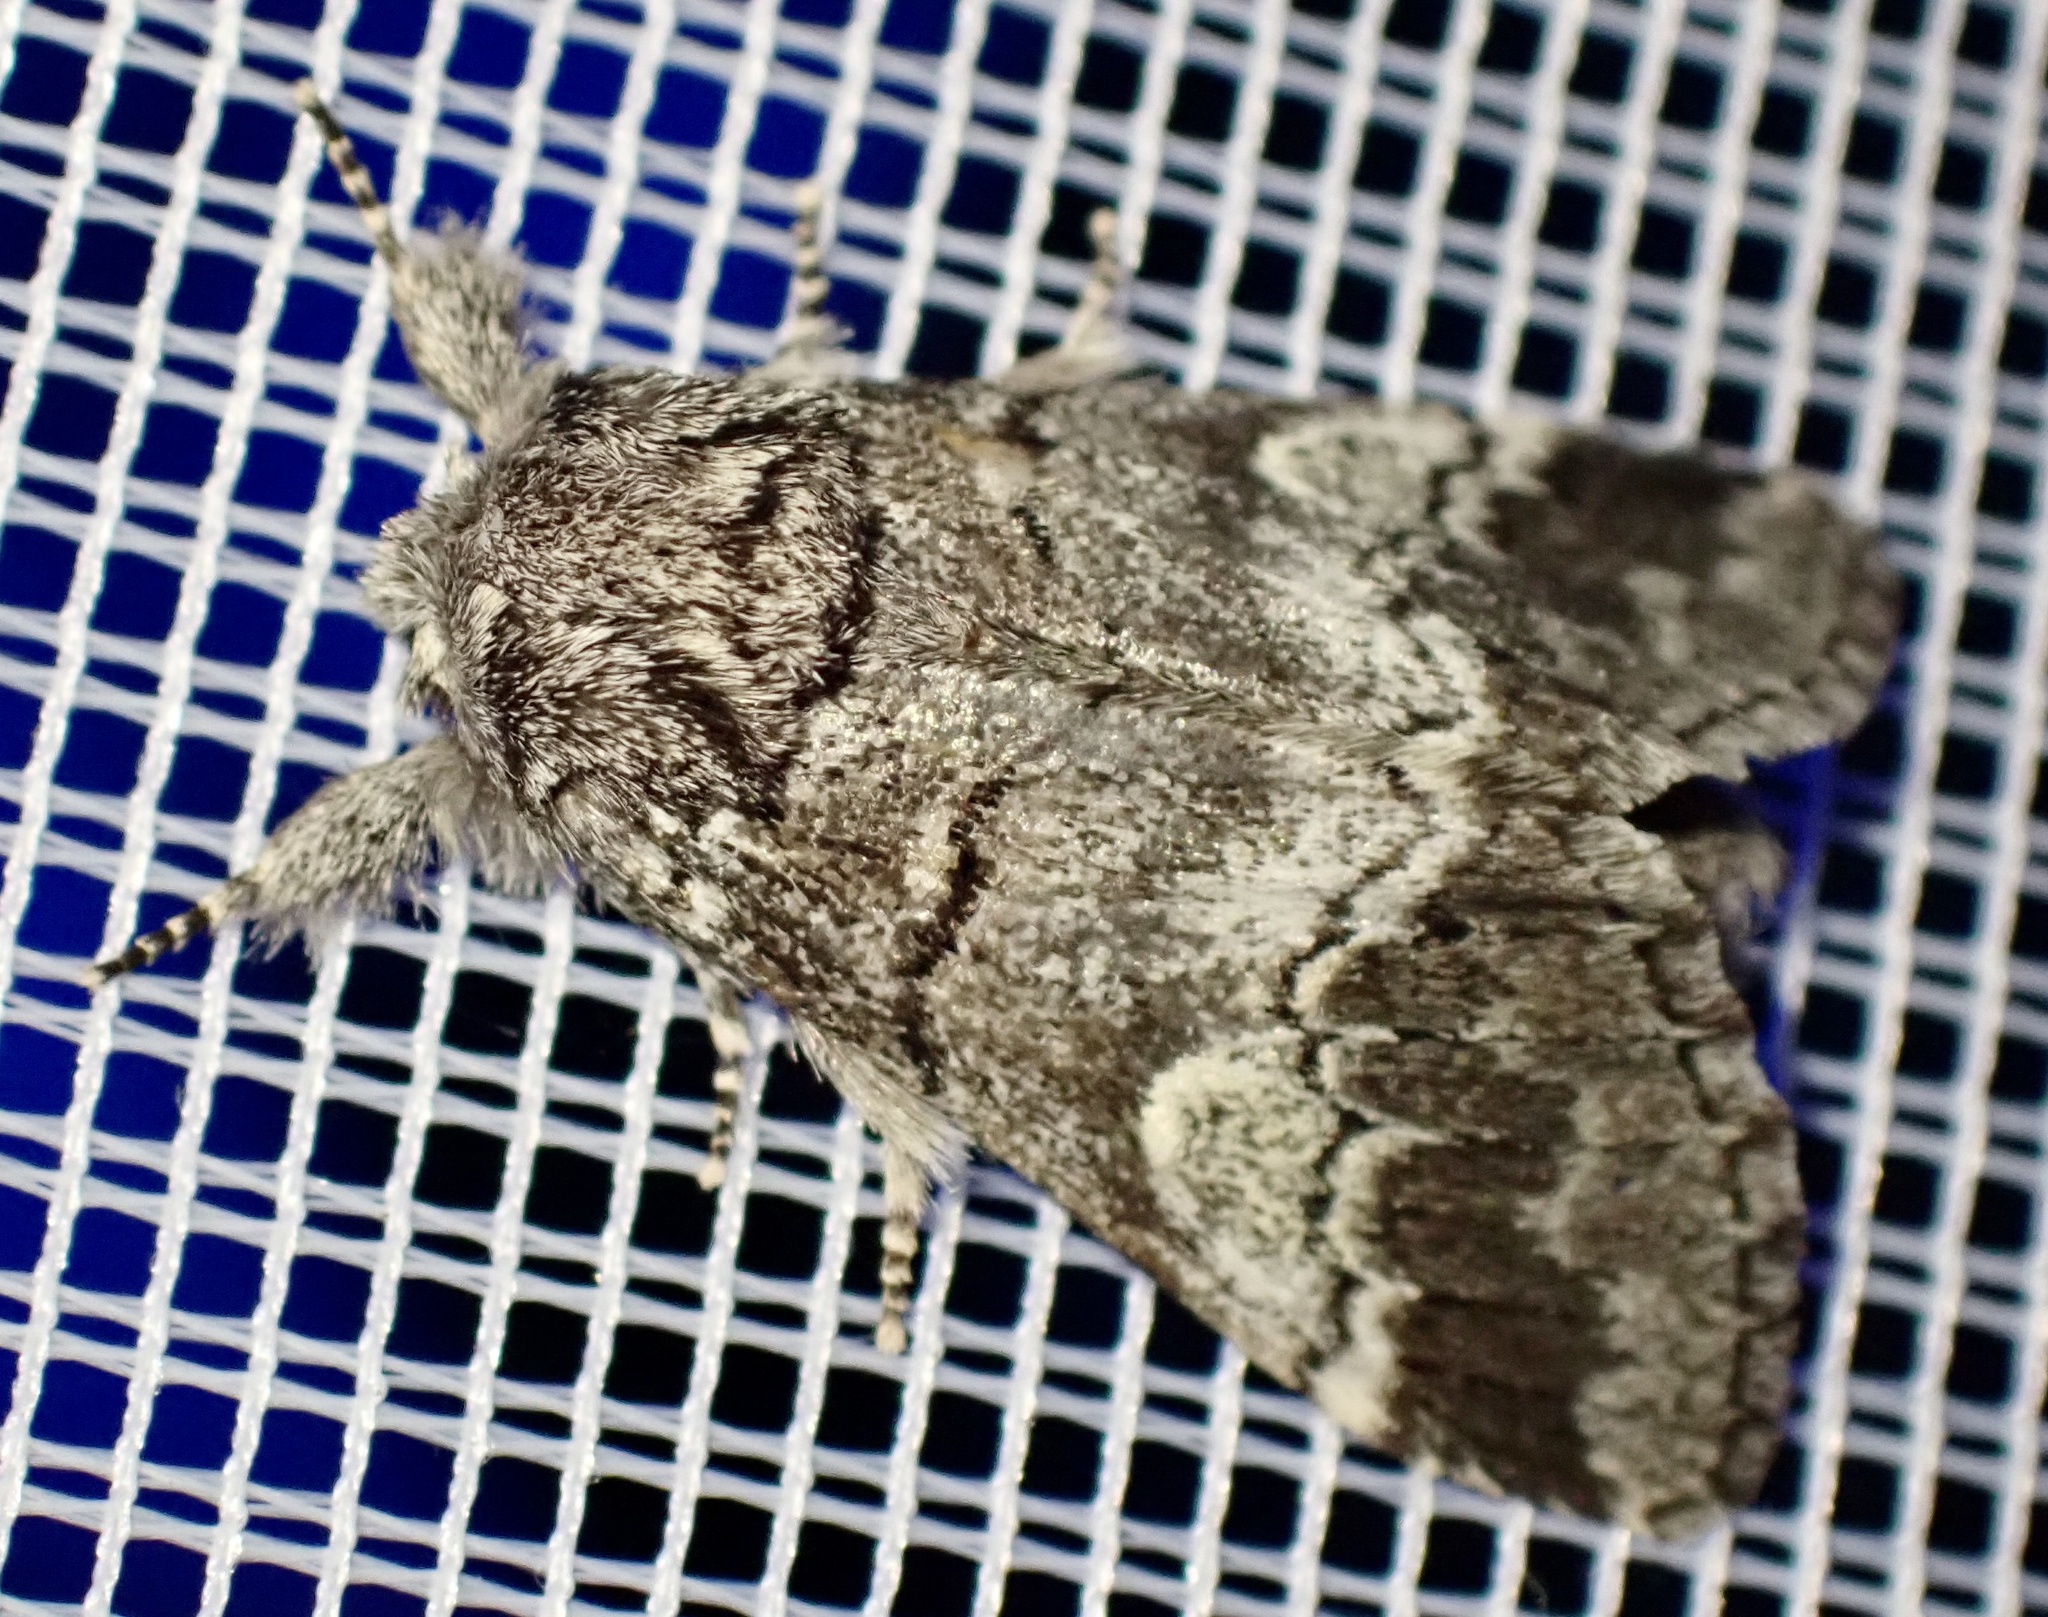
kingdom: Animalia
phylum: Arthropoda
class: Insecta
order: Lepidoptera
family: Notodontidae
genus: Drymonia
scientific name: Drymonia querna
